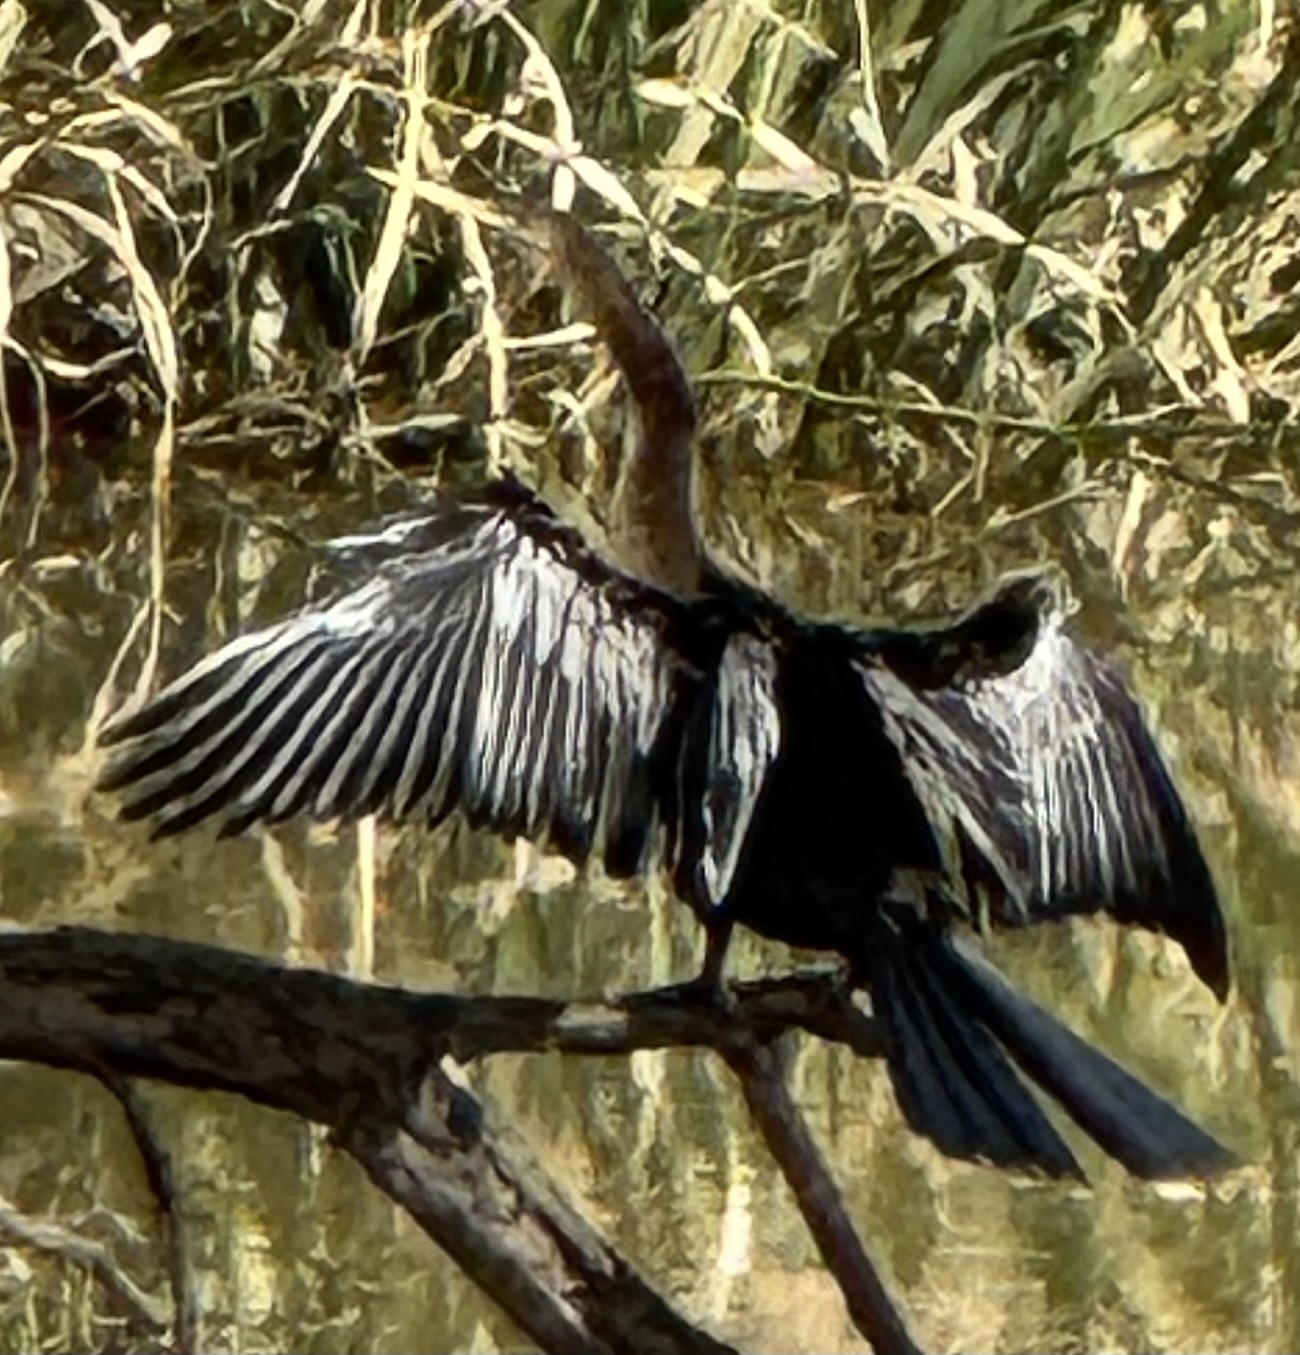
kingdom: Animalia
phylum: Chordata
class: Aves
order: Suliformes
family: Anhingidae
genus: Anhinga
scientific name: Anhinga anhinga
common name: Anhinga
